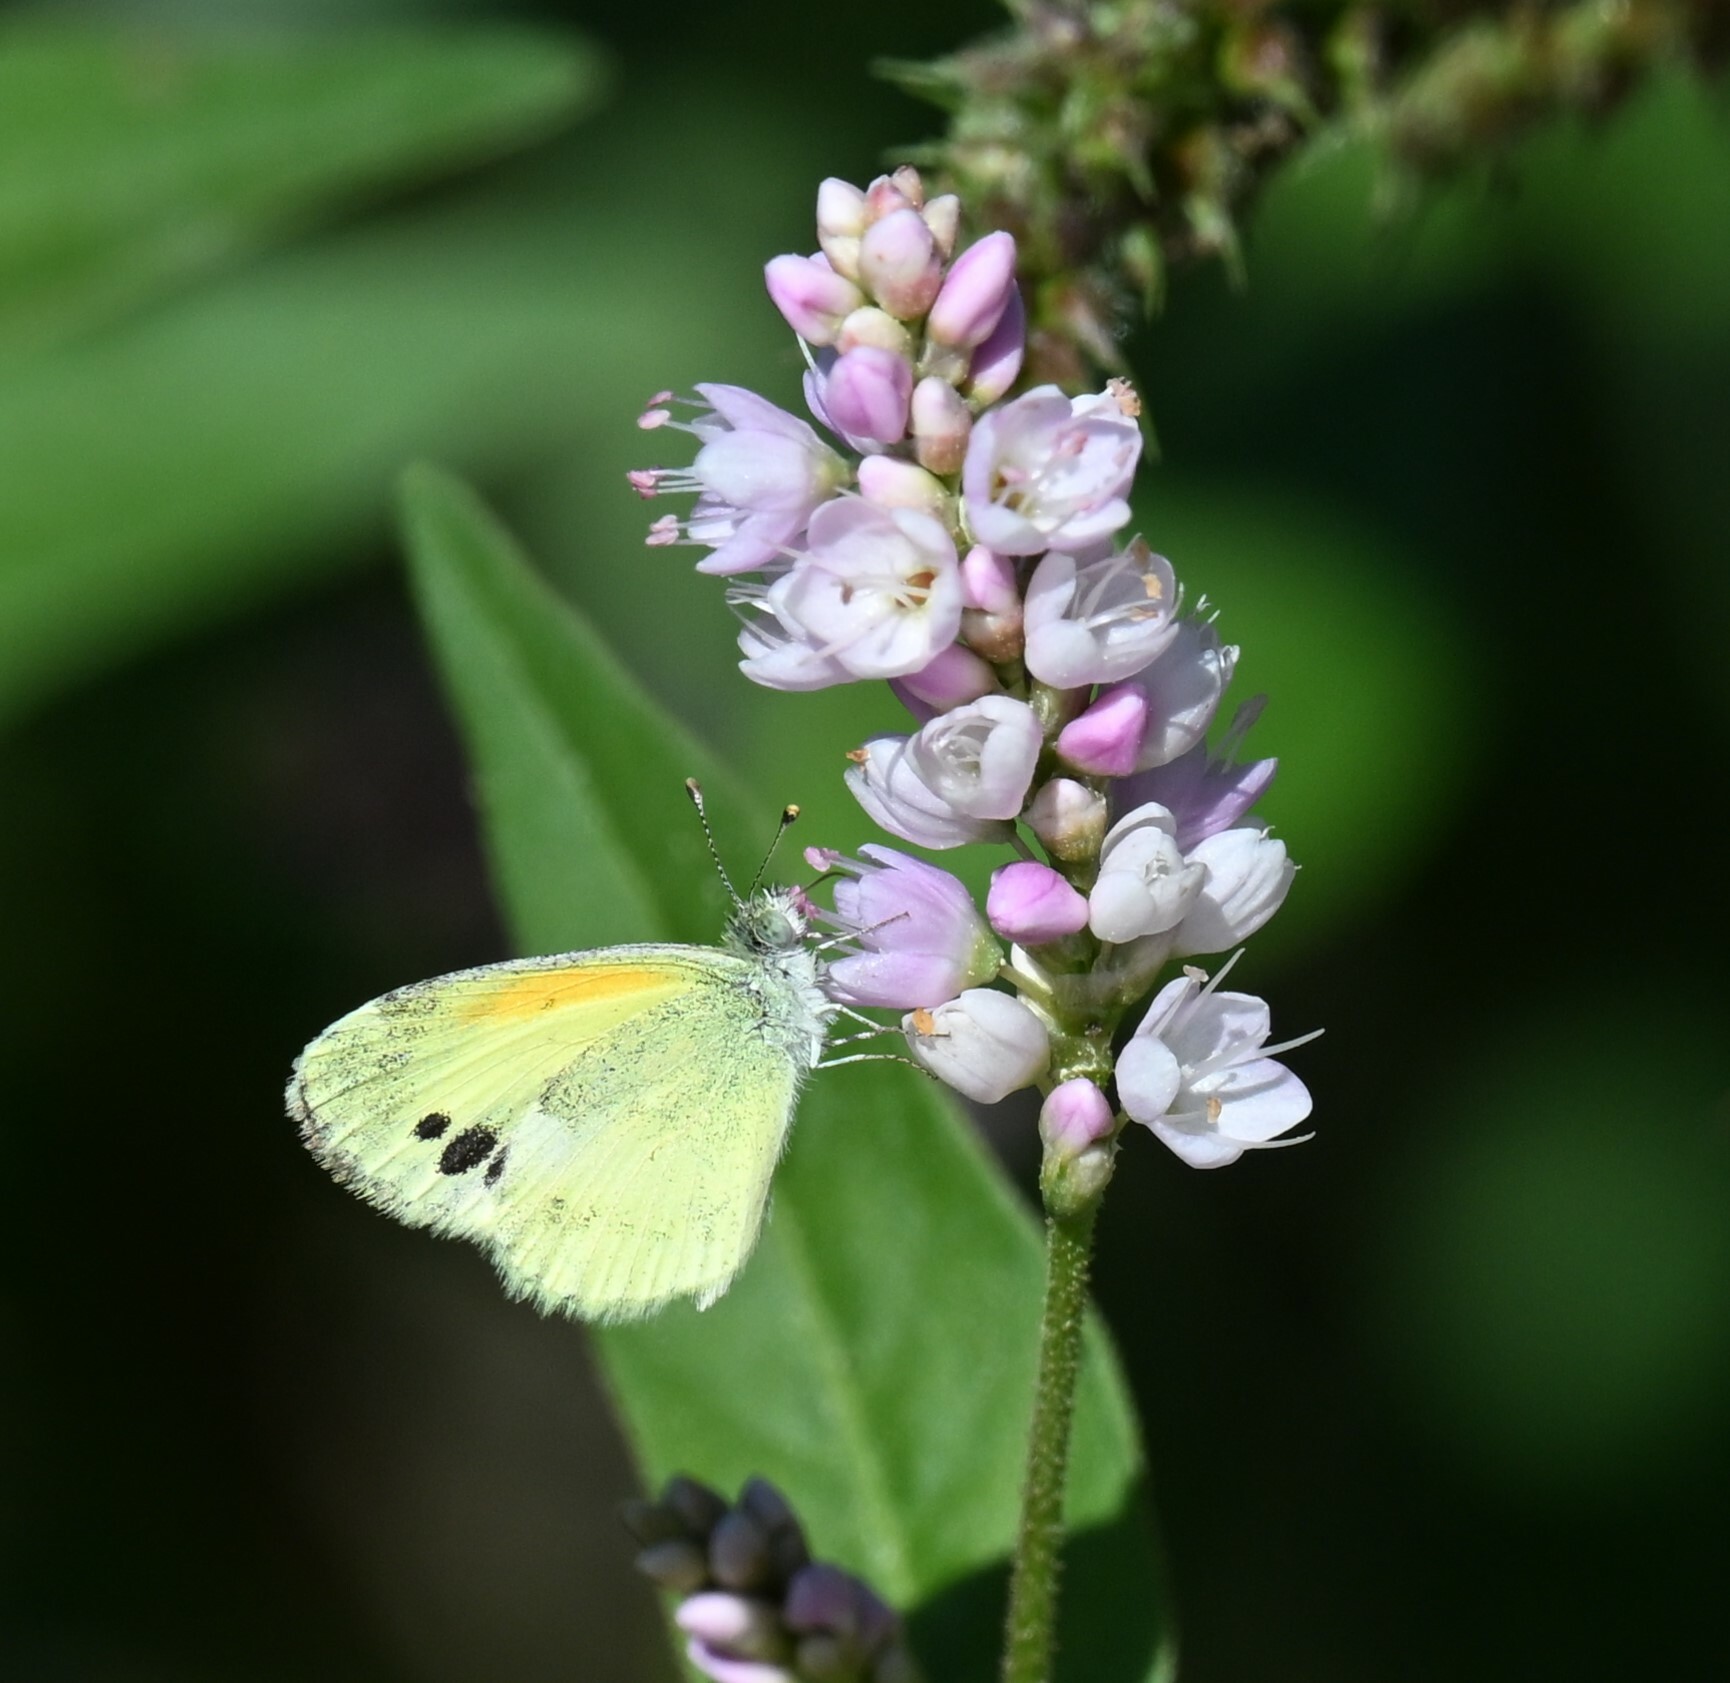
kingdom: Animalia
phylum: Arthropoda
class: Insecta
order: Lepidoptera
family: Pieridae
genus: Nathalis
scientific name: Nathalis iole
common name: Dainty sulphur
